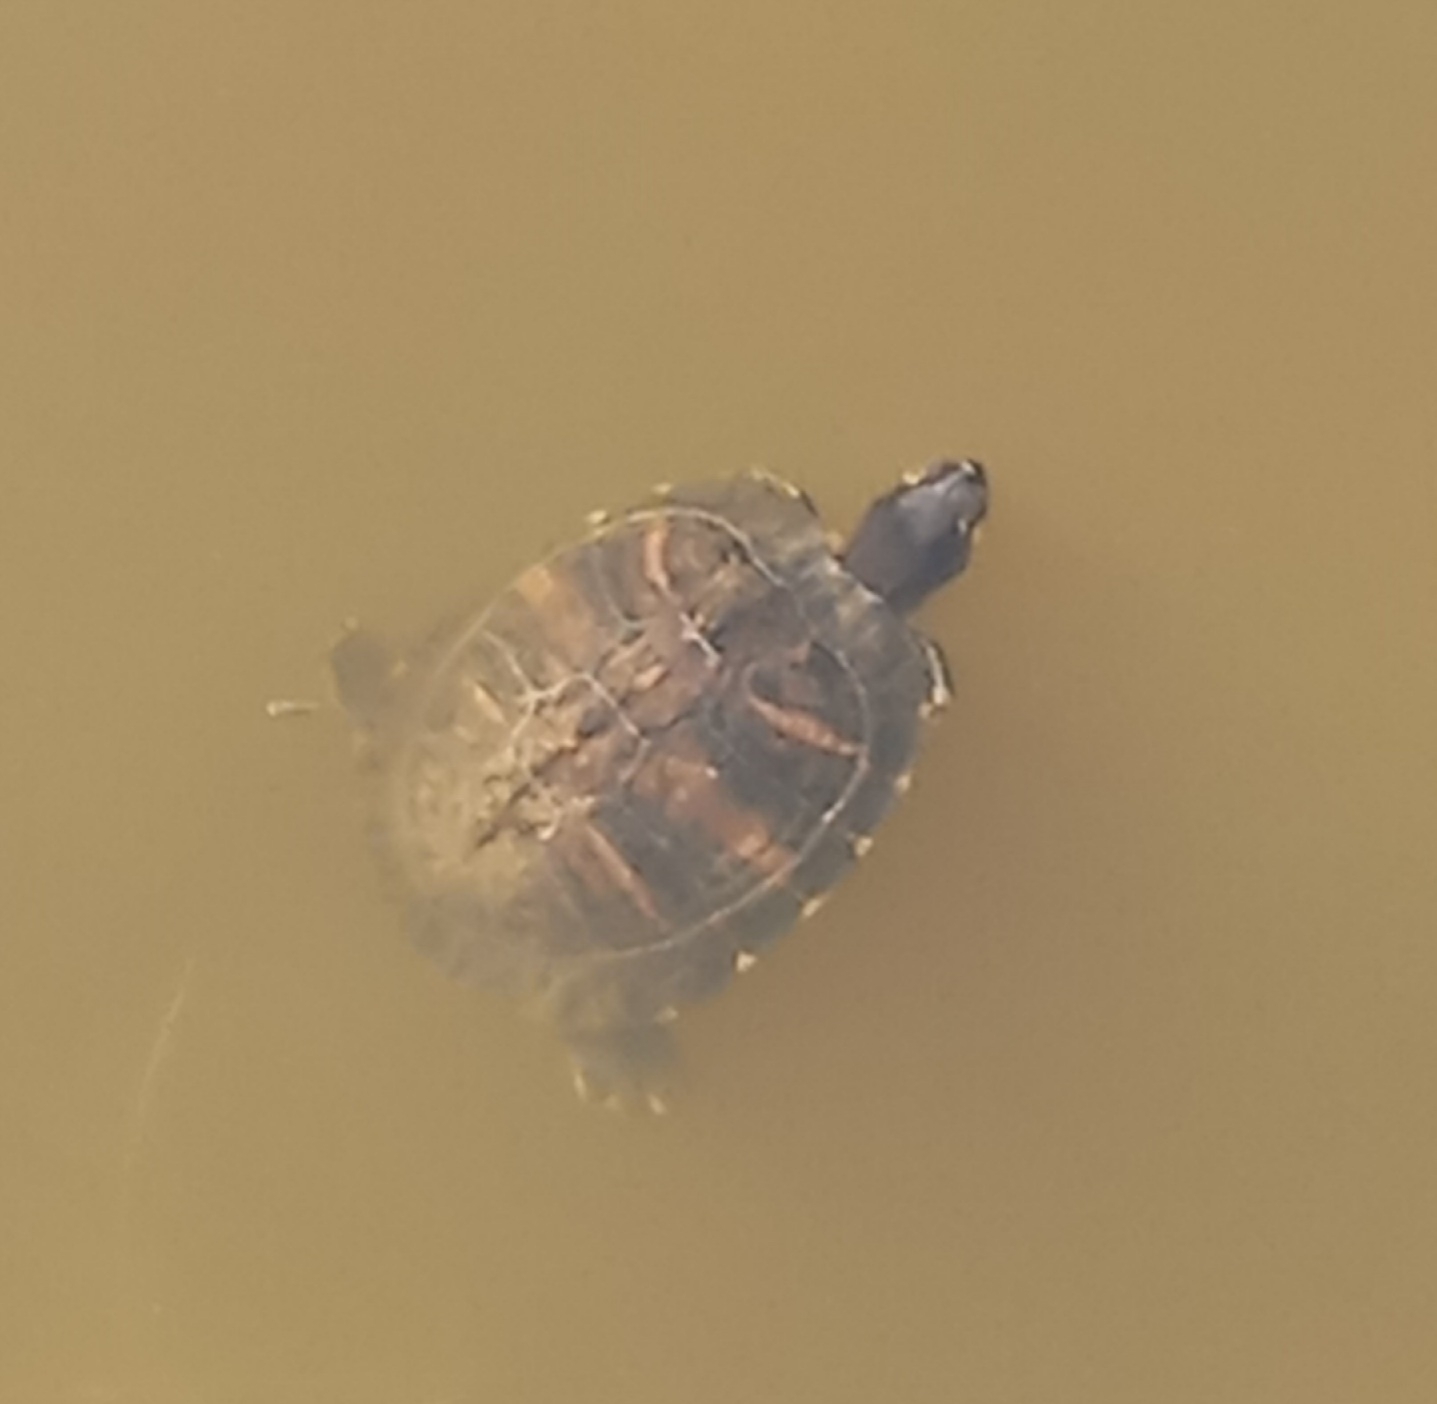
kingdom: Animalia
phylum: Chordata
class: Testudines
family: Emydidae
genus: Trachemys
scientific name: Trachemys scripta
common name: Slider
